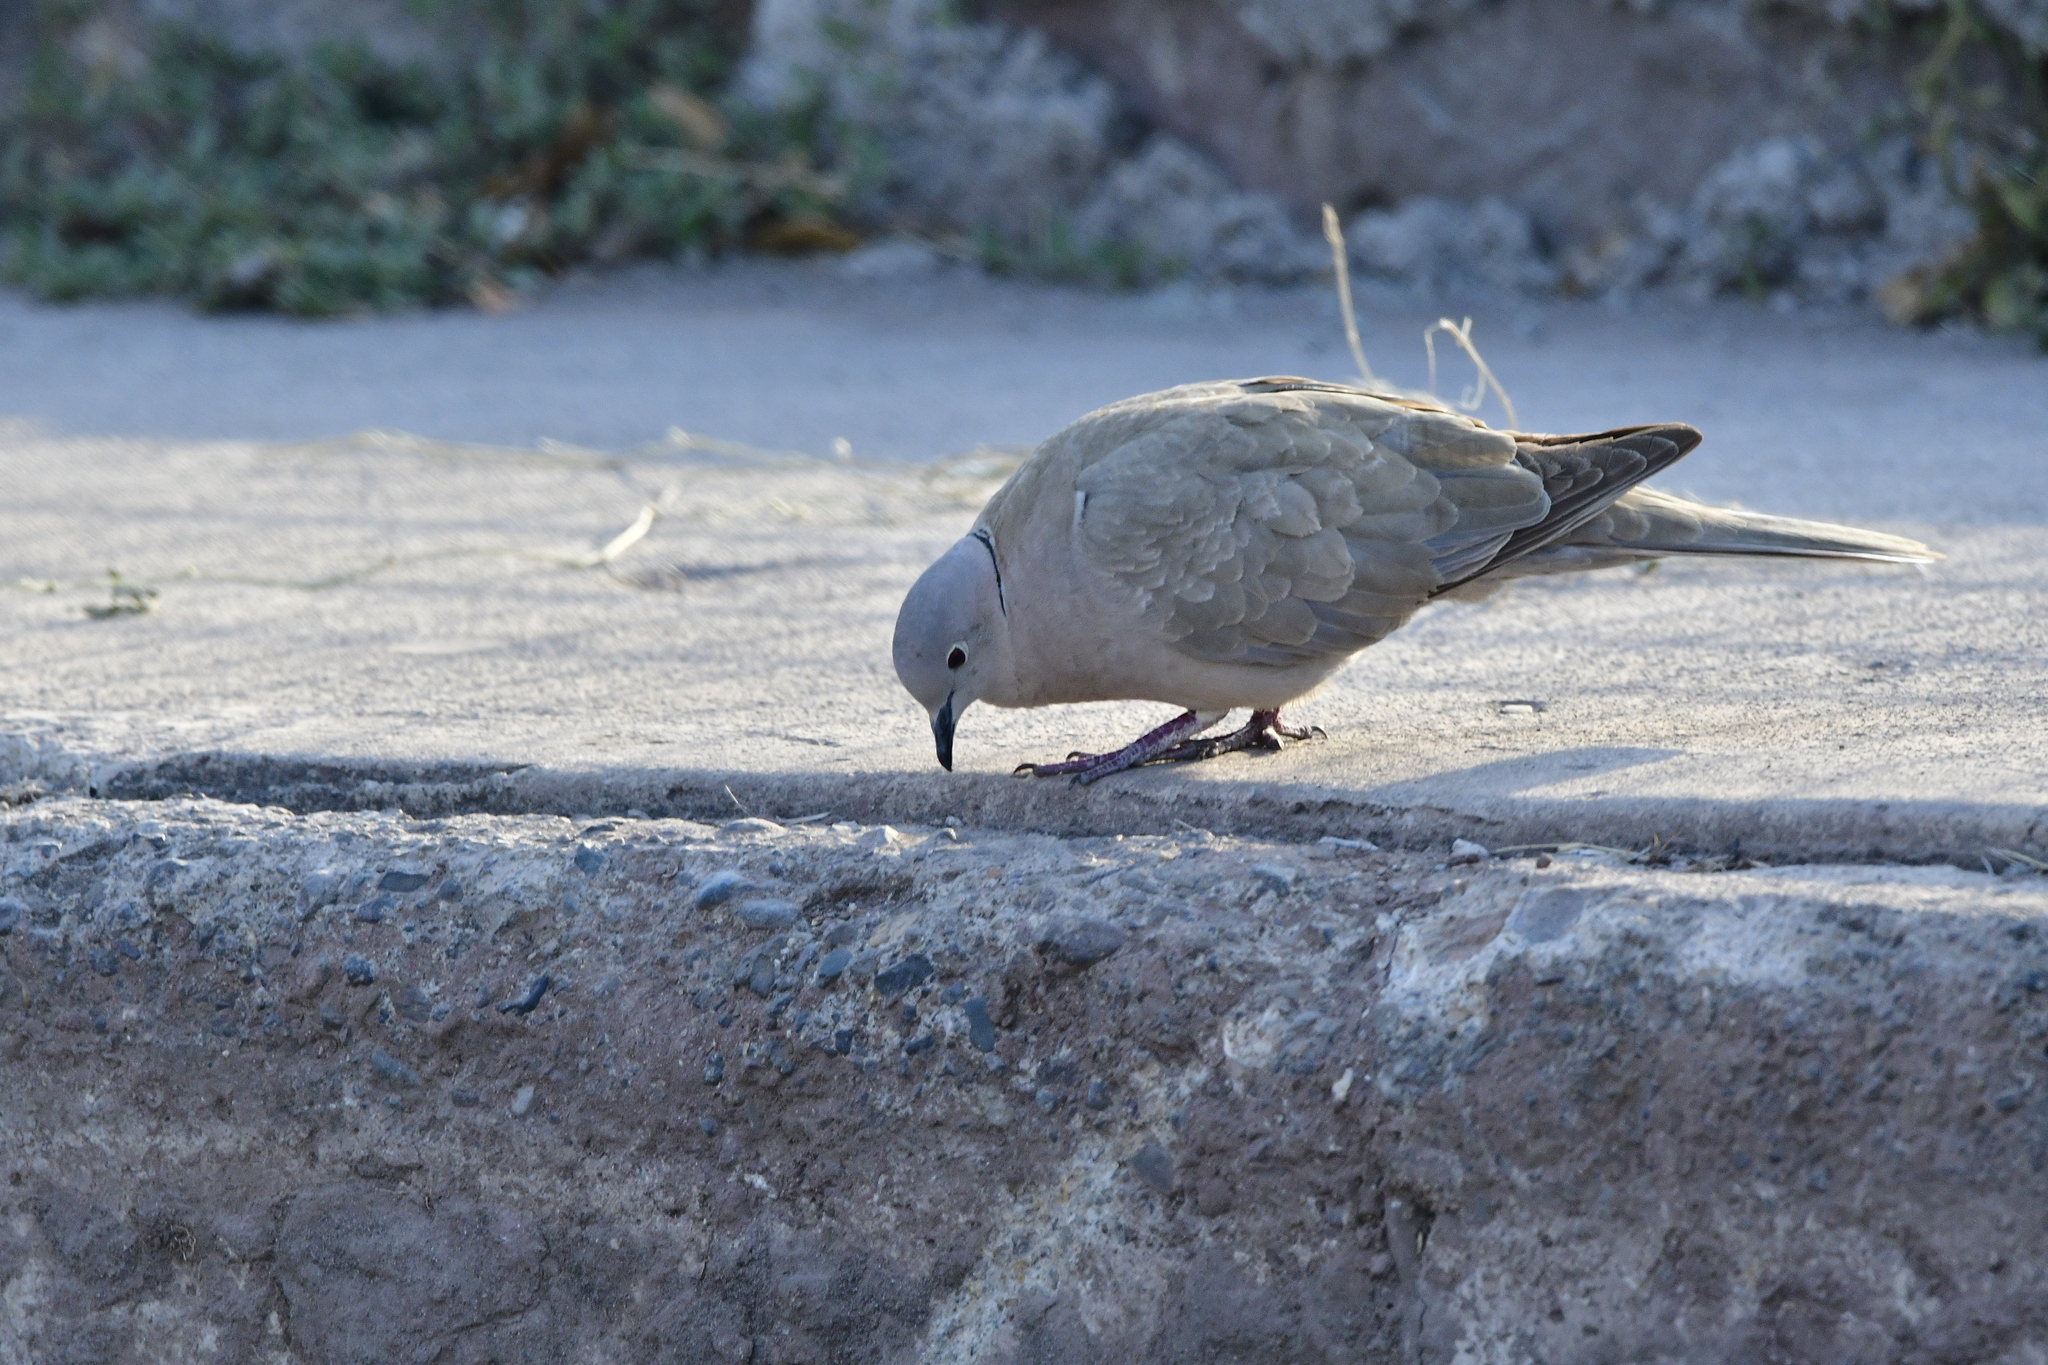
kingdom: Animalia
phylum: Chordata
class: Aves
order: Columbiformes
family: Columbidae
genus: Streptopelia
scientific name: Streptopelia decaocto
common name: Eurasian collared dove
